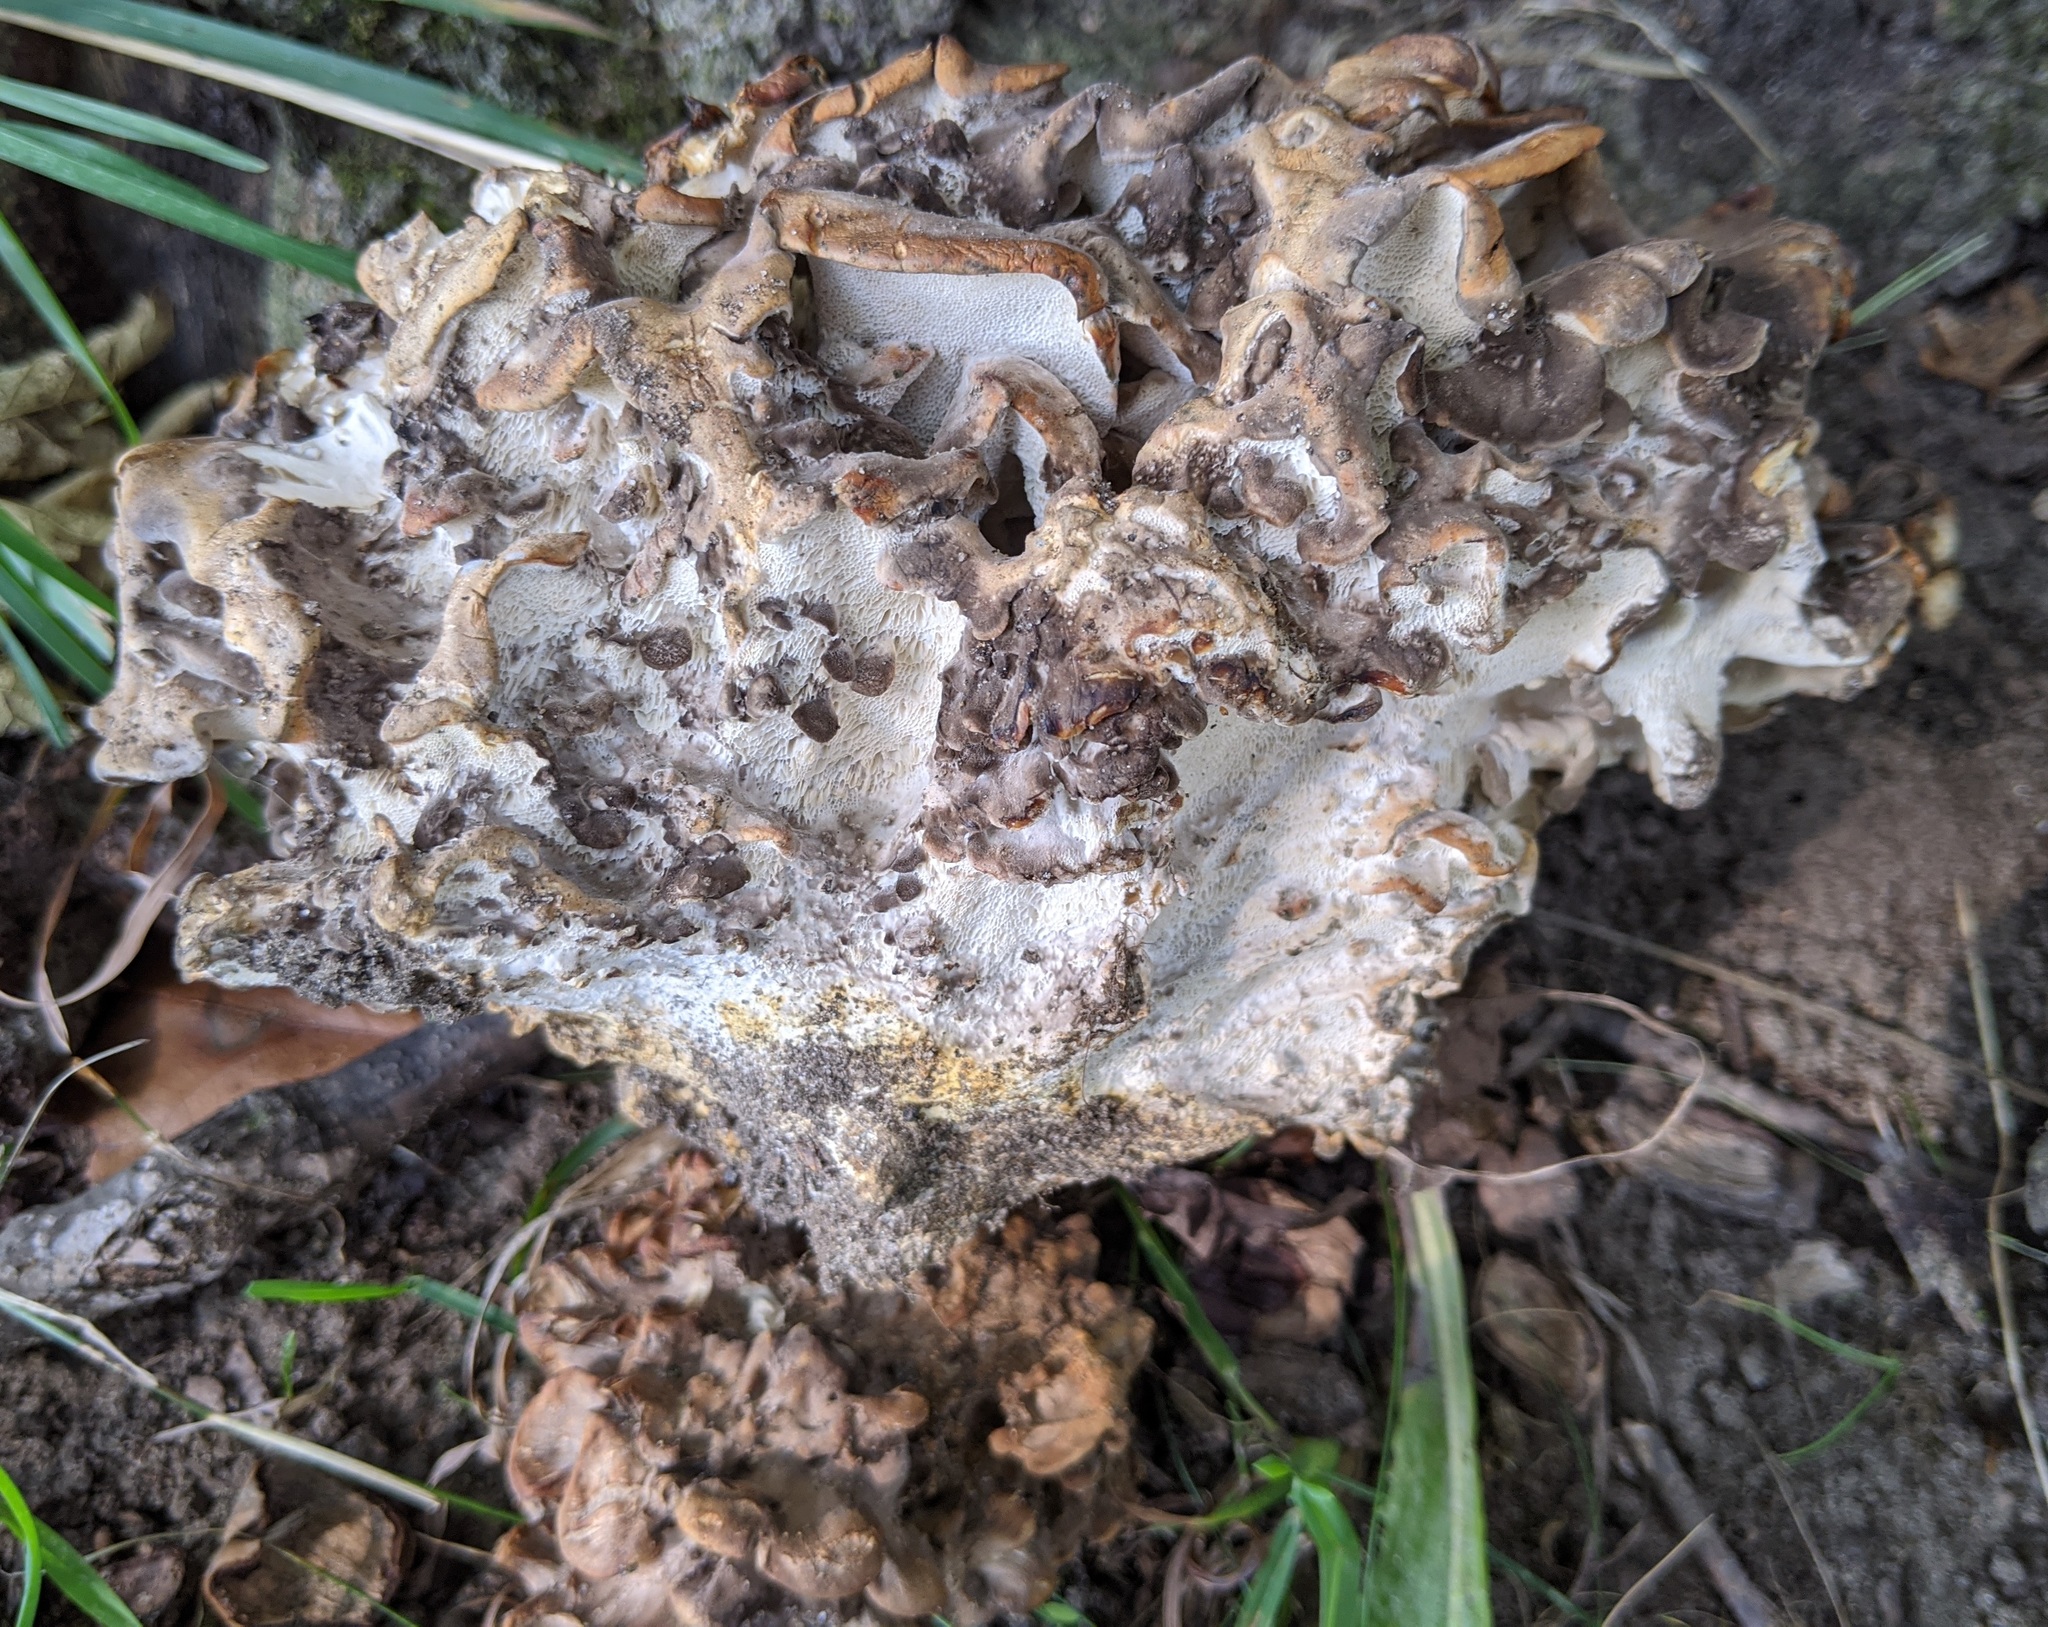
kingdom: Fungi
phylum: Basidiomycota
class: Agaricomycetes
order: Polyporales
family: Grifolaceae
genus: Grifola
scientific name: Grifola frondosa
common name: Hen of the woods
